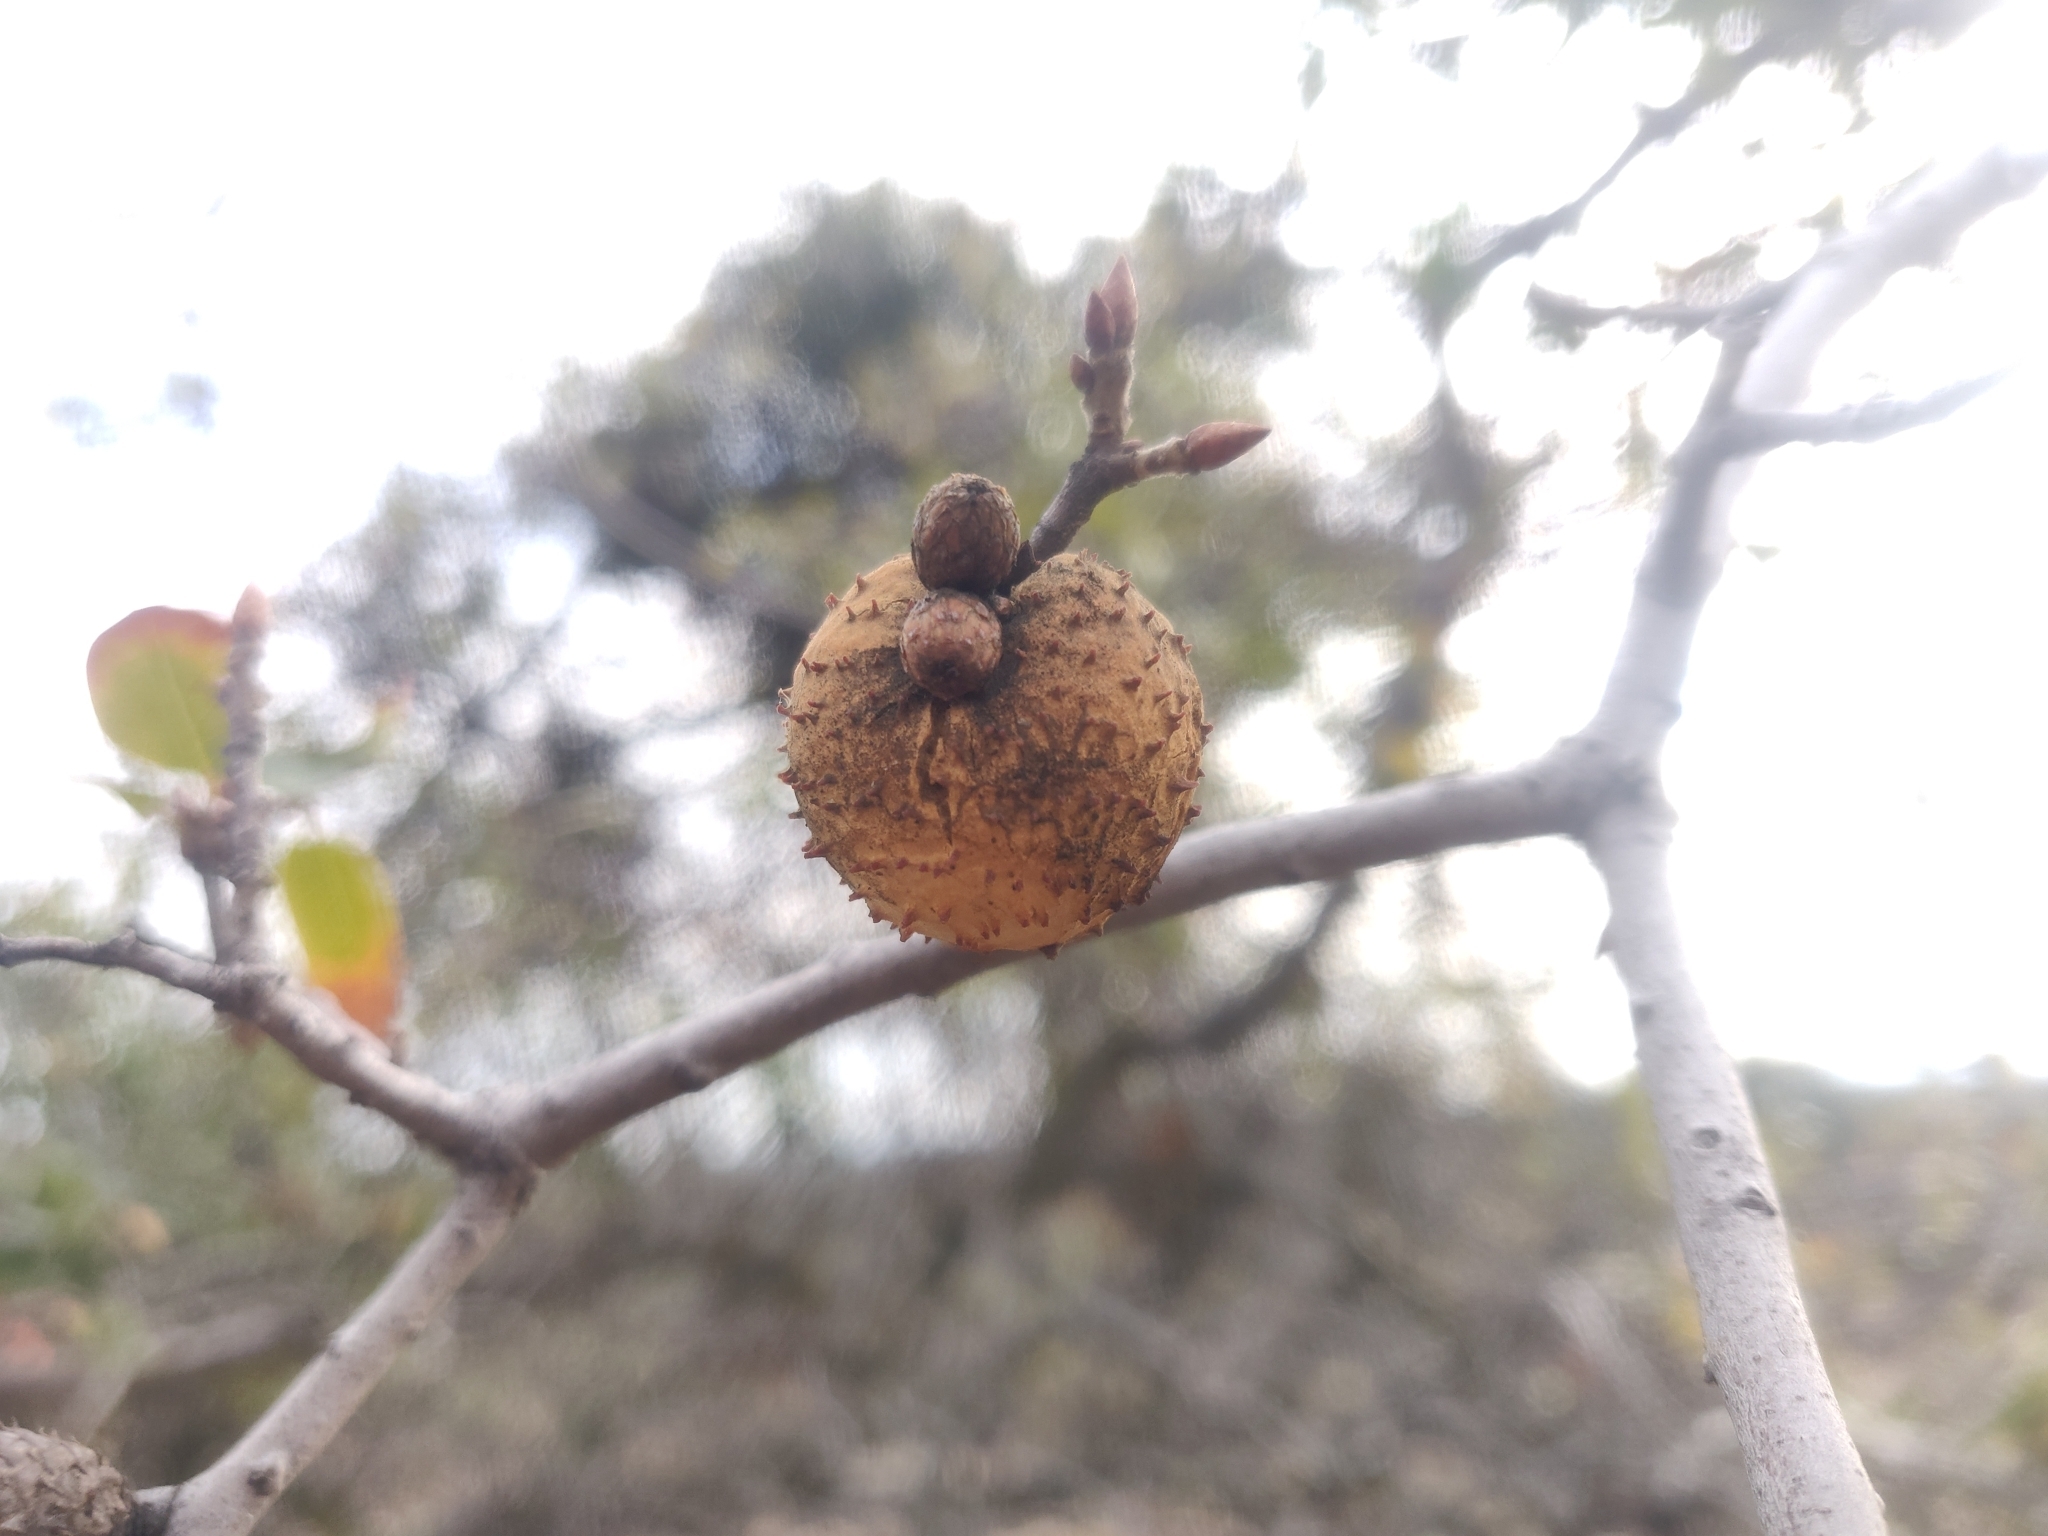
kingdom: Animalia
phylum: Arthropoda
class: Insecta
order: Hymenoptera
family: Cynipidae
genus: Amphibolips
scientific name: Amphibolips quercuspomiformis
